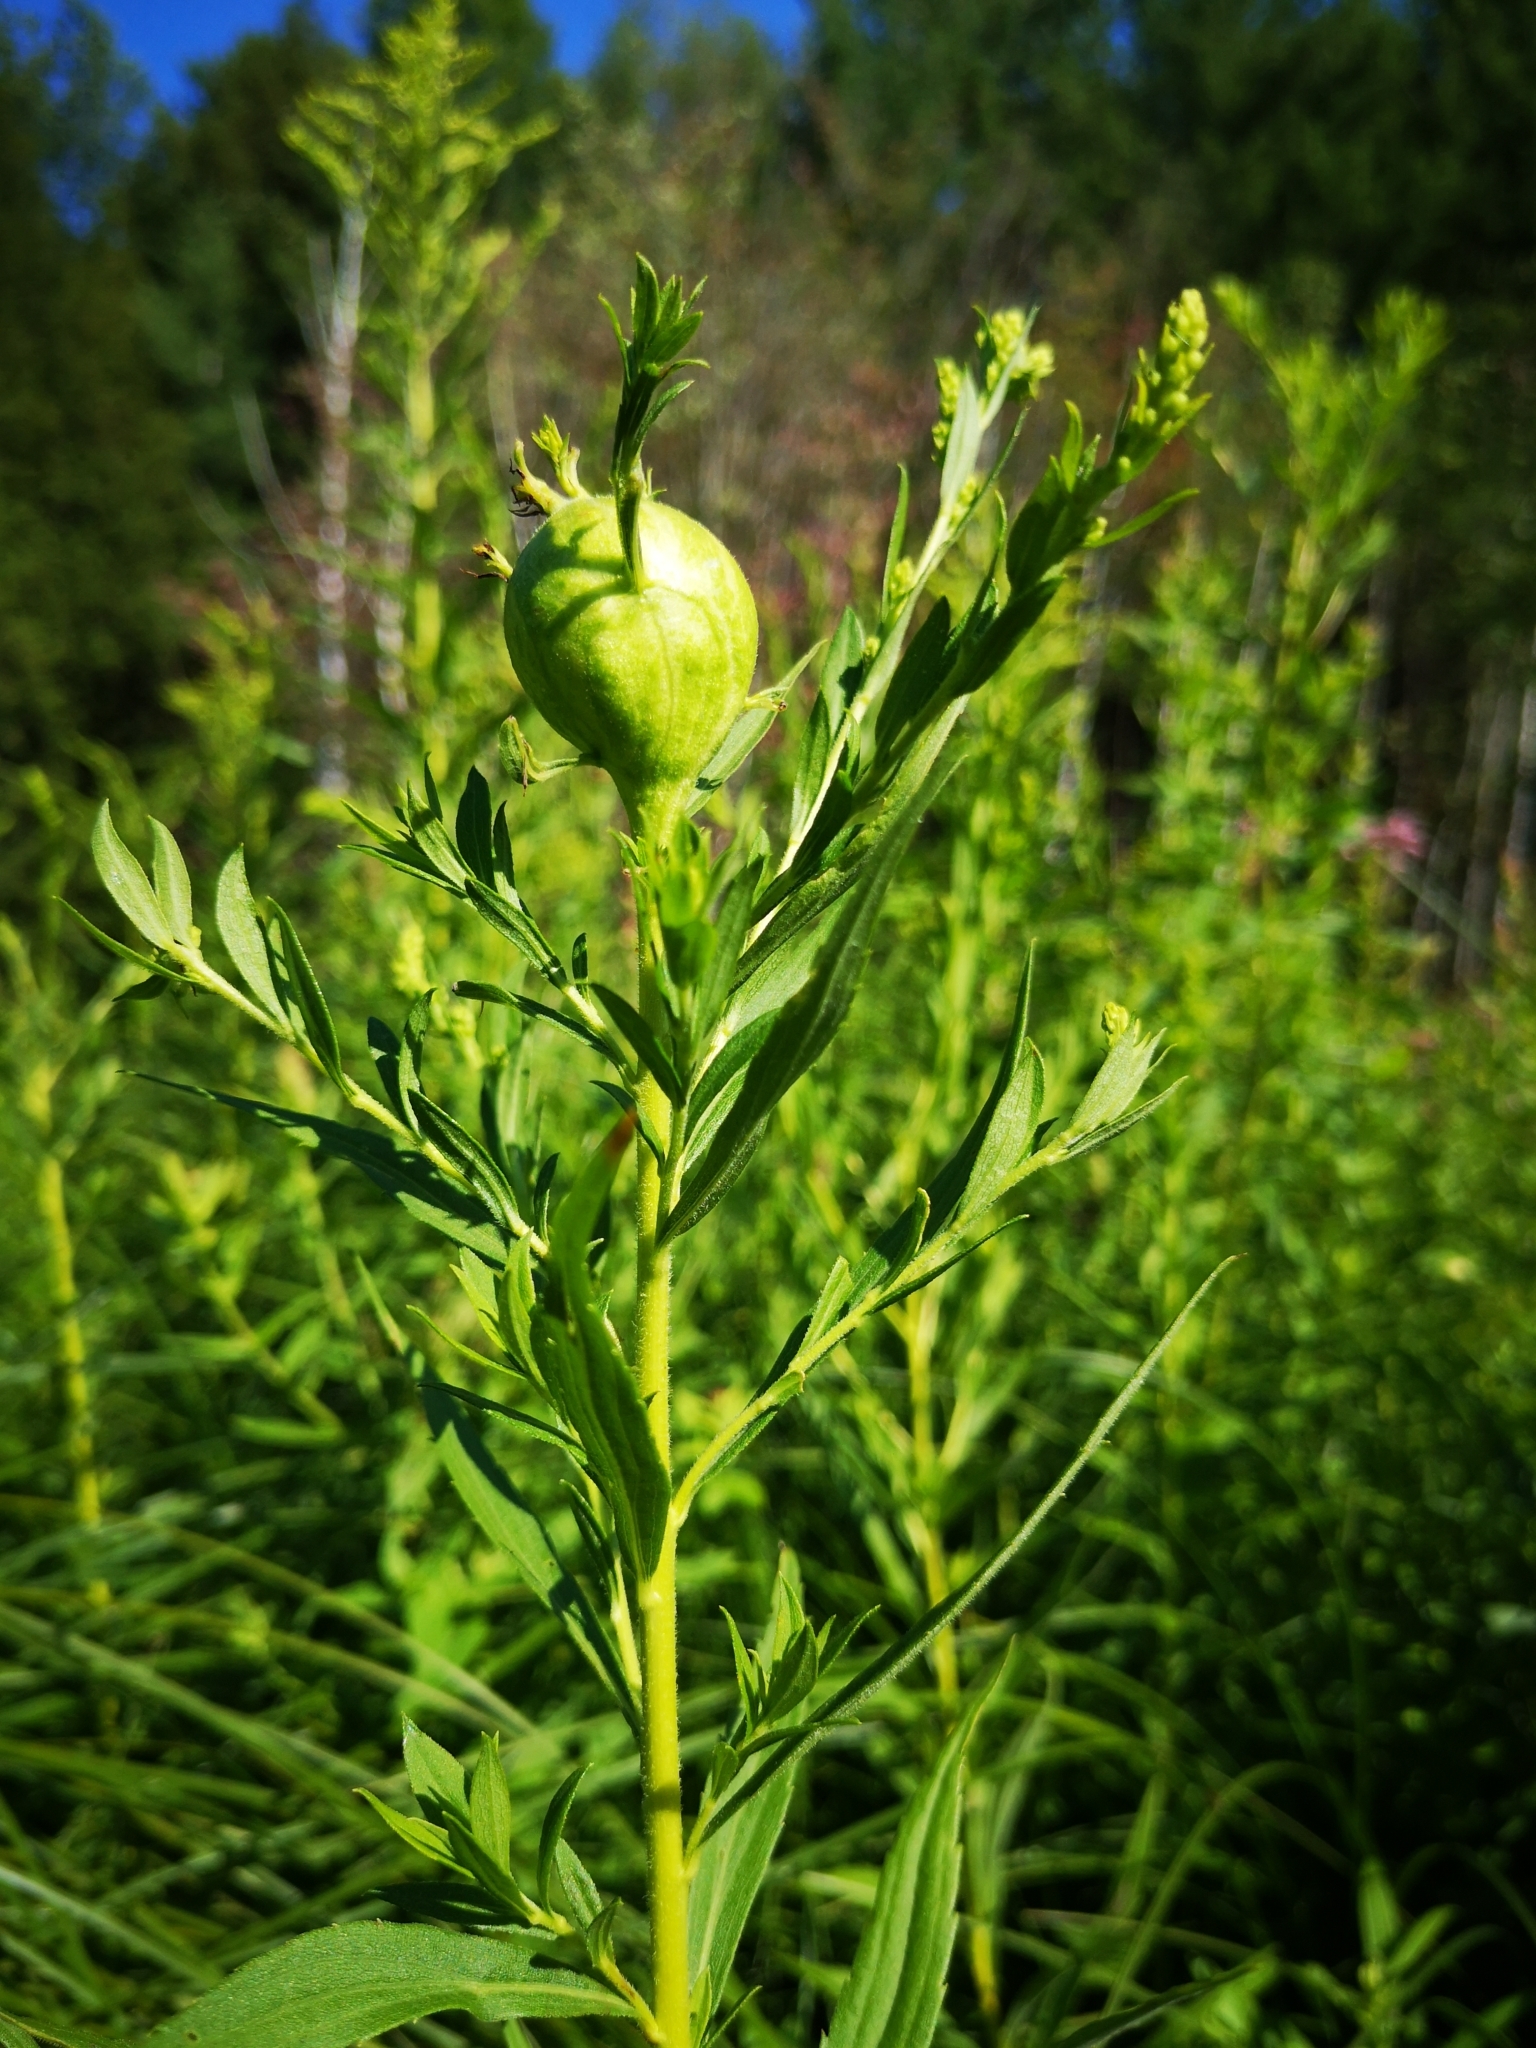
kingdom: Animalia
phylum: Arthropoda
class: Insecta
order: Diptera
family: Tephritidae
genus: Eurosta
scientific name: Eurosta solidaginis
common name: Goldenrod gall fly
